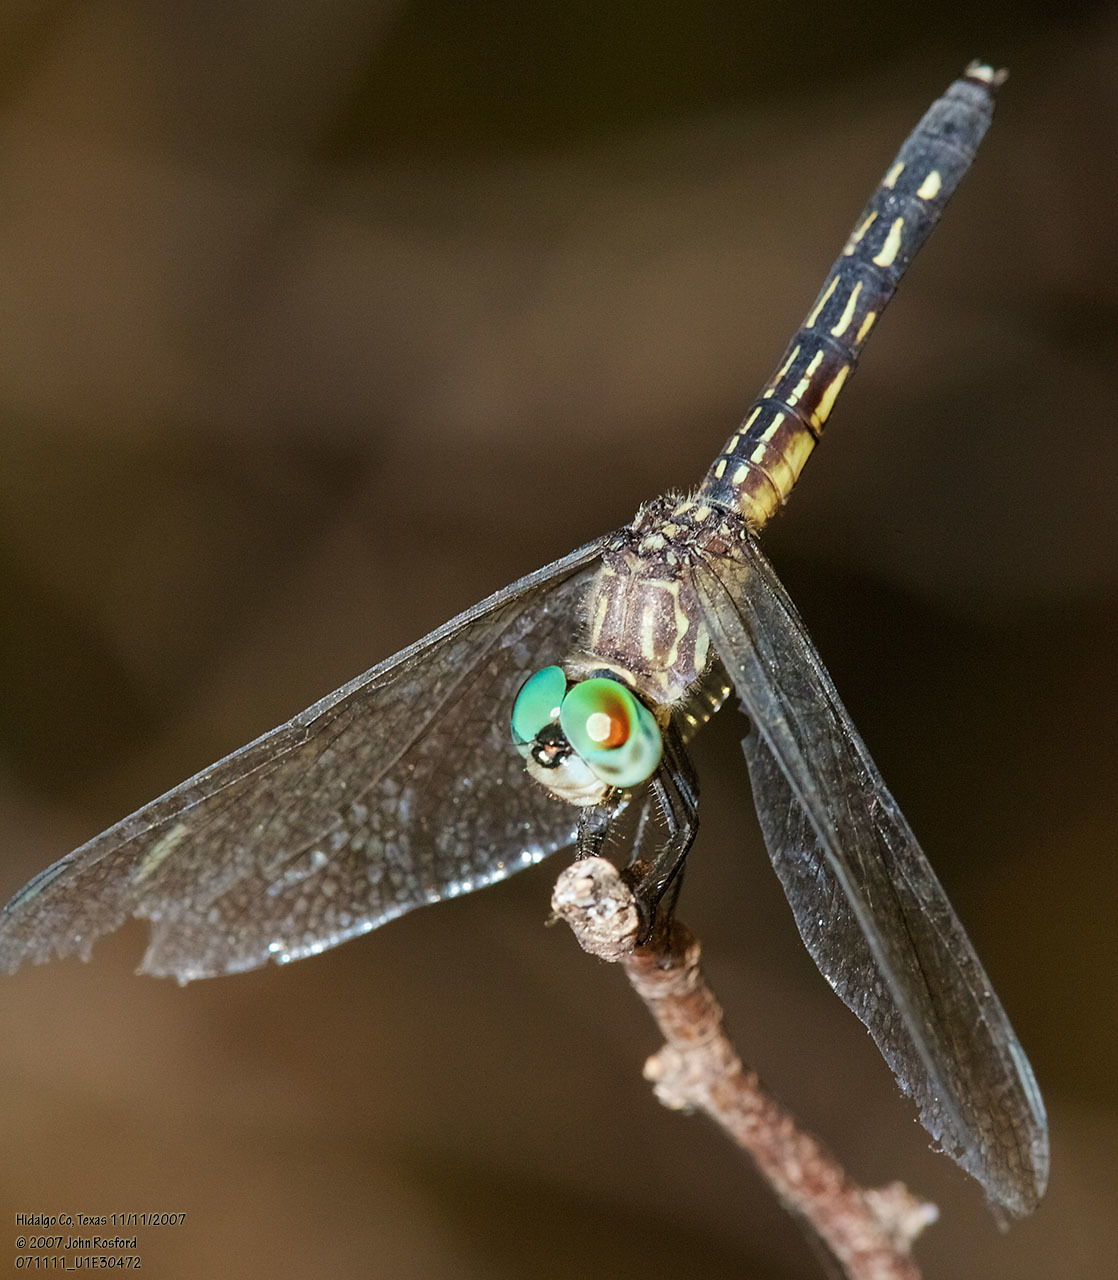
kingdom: Animalia
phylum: Arthropoda
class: Insecta
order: Odonata
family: Libellulidae
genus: Pachydiplax
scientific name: Pachydiplax longipennis
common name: Blue dasher
